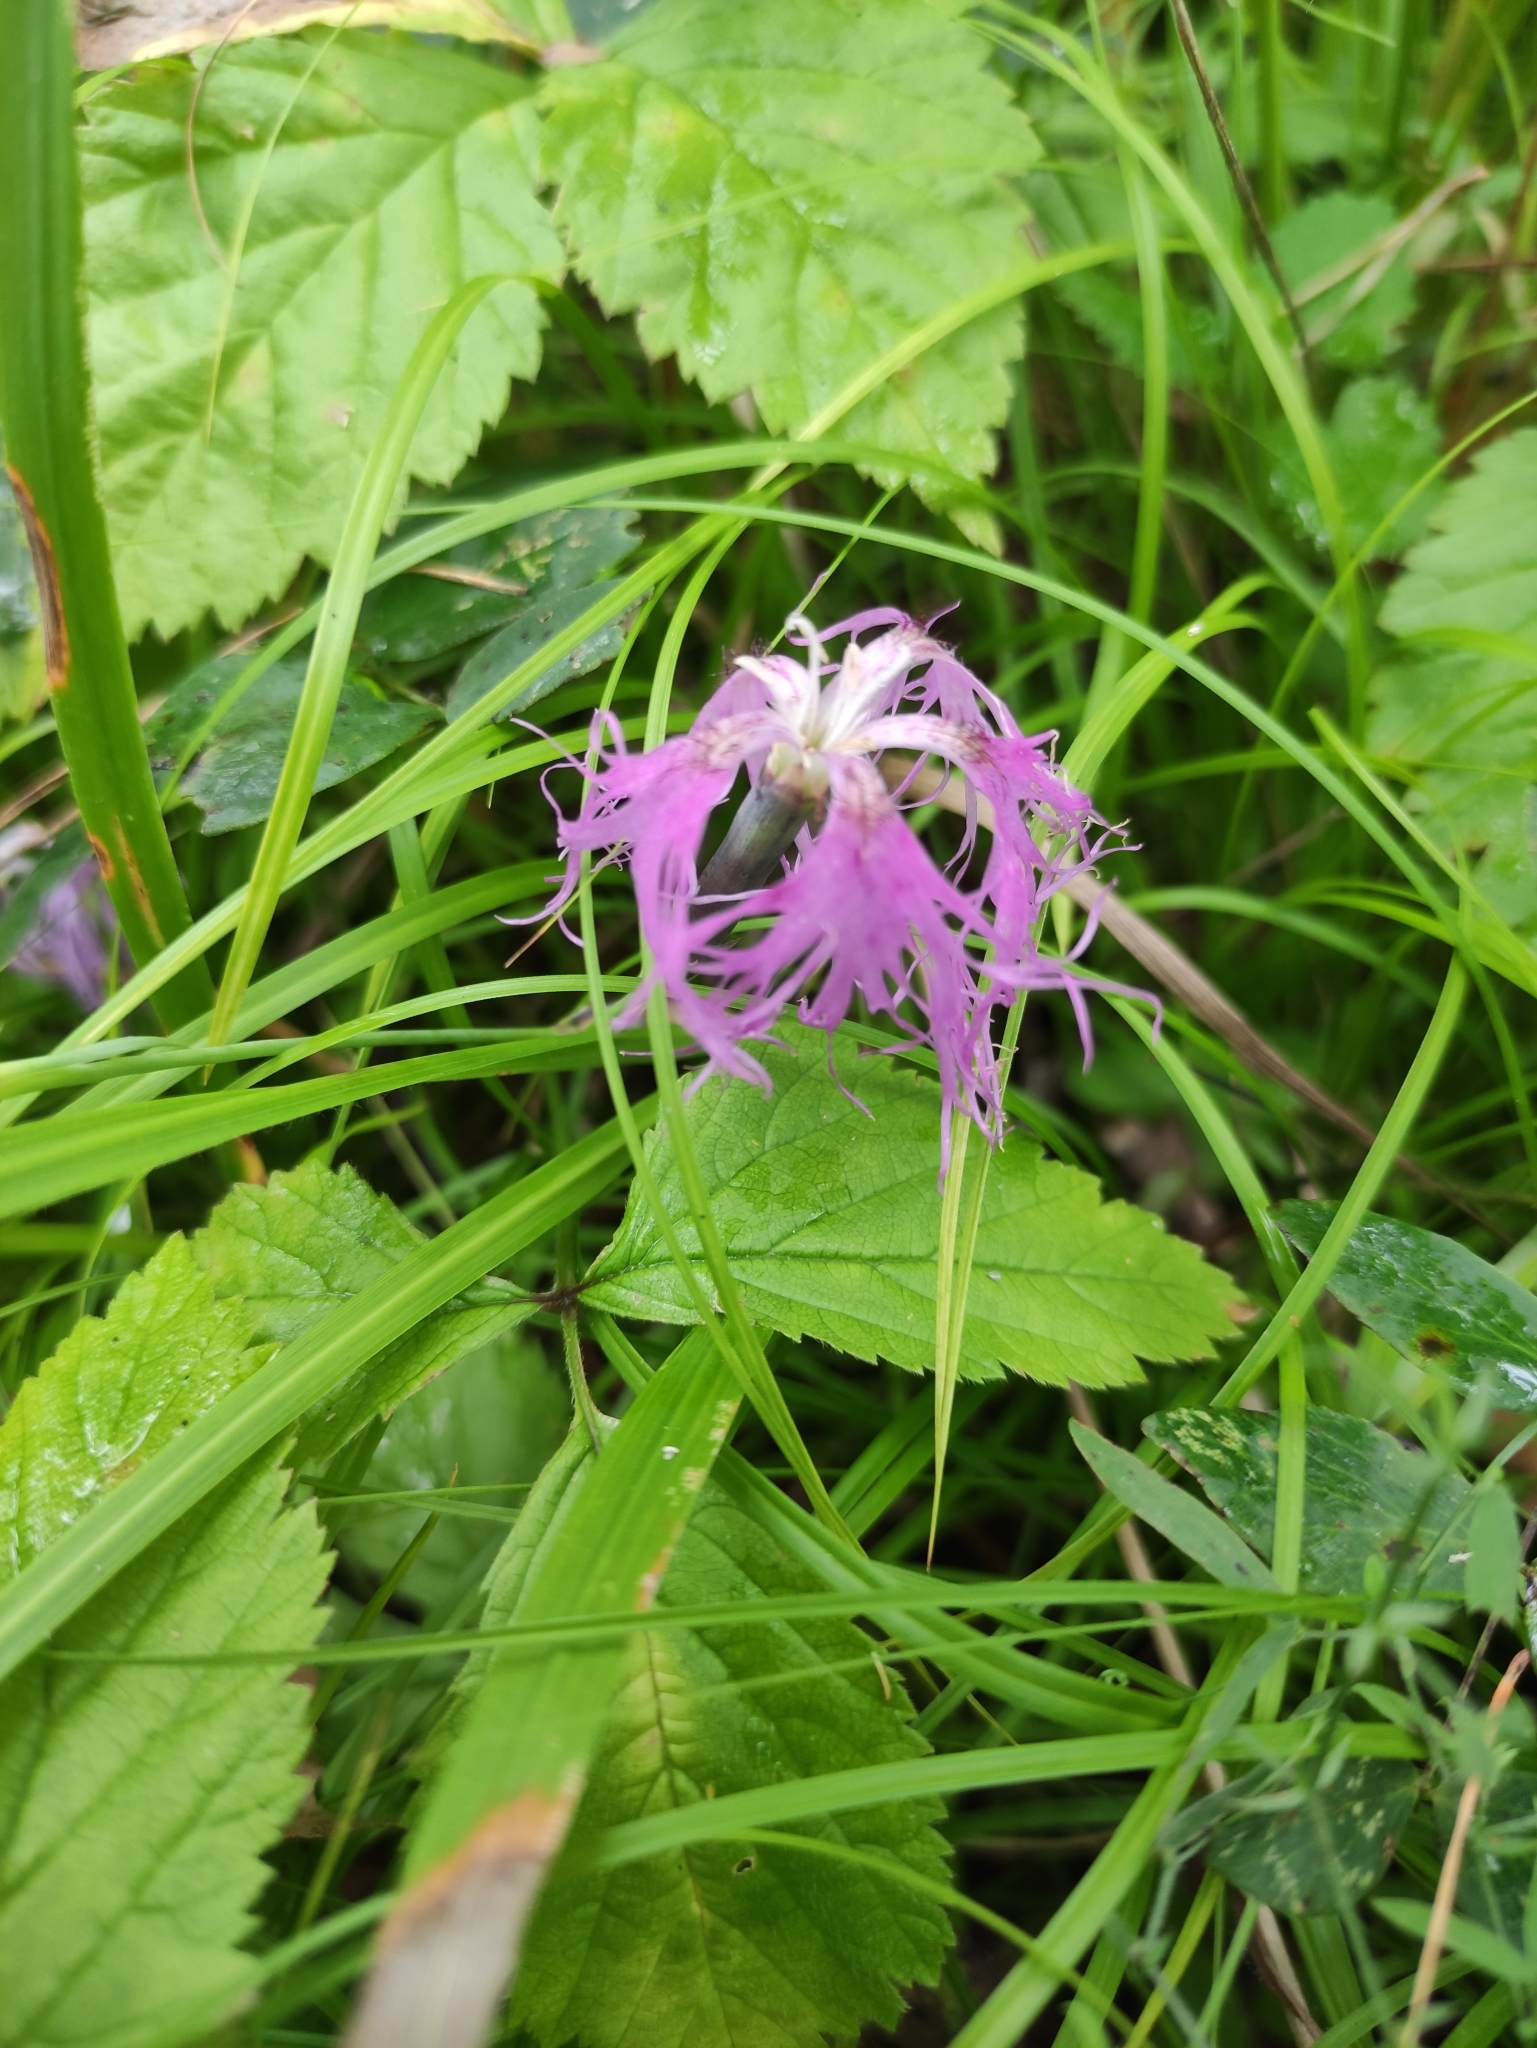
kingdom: Plantae
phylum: Tracheophyta
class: Magnoliopsida
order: Caryophyllales
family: Caryophyllaceae
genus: Dianthus
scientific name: Dianthus superbus
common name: Fringed pink
